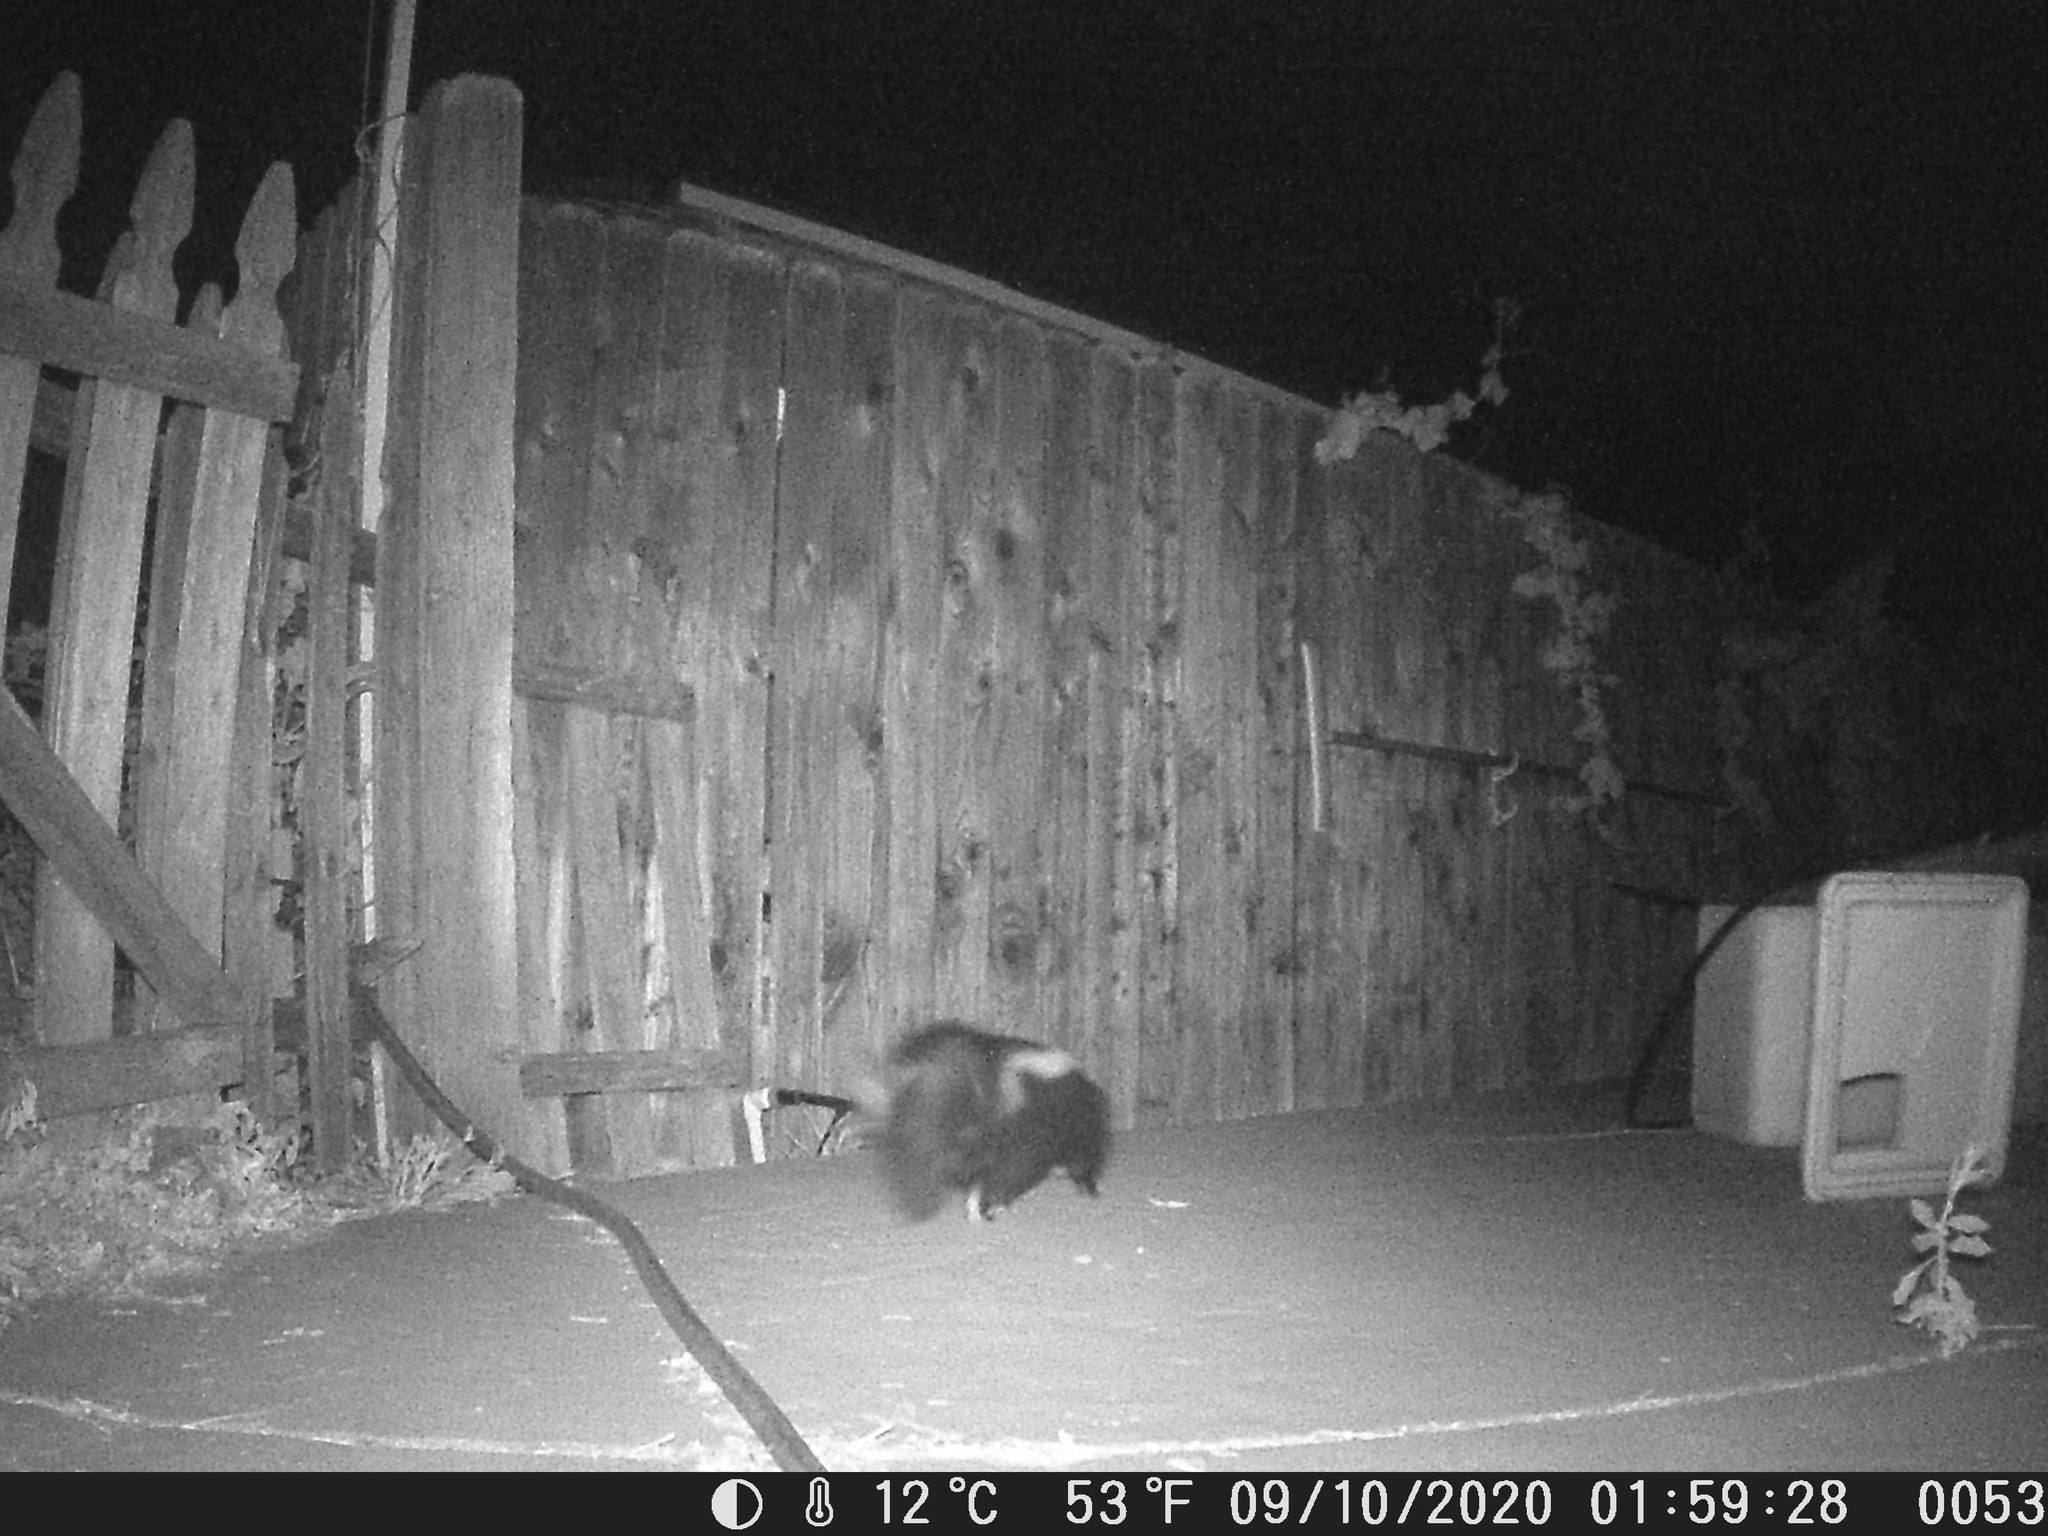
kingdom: Animalia
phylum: Chordata
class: Mammalia
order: Carnivora
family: Mephitidae
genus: Mephitis
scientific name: Mephitis mephitis
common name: Striped skunk
